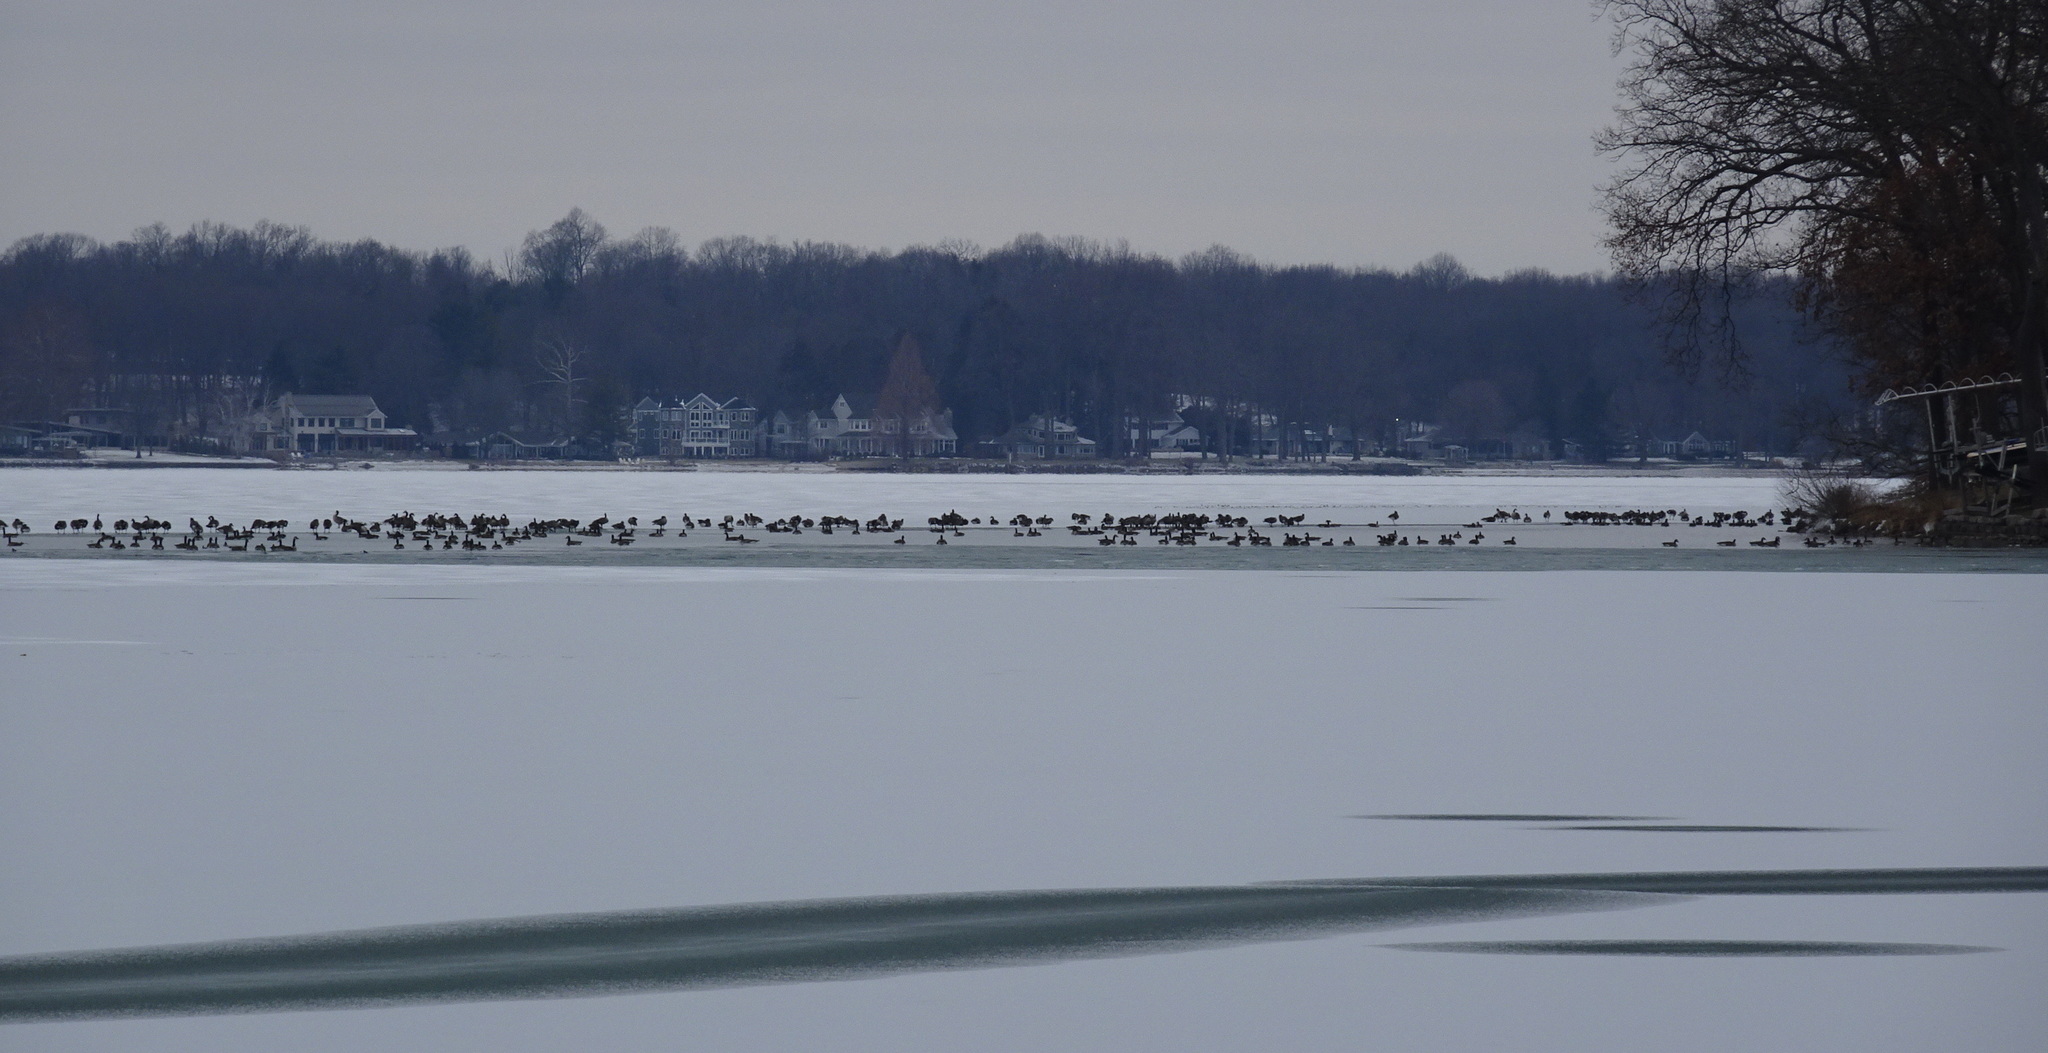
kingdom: Animalia
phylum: Chordata
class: Aves
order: Anseriformes
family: Anatidae
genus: Branta
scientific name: Branta canadensis
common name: Canada goose
